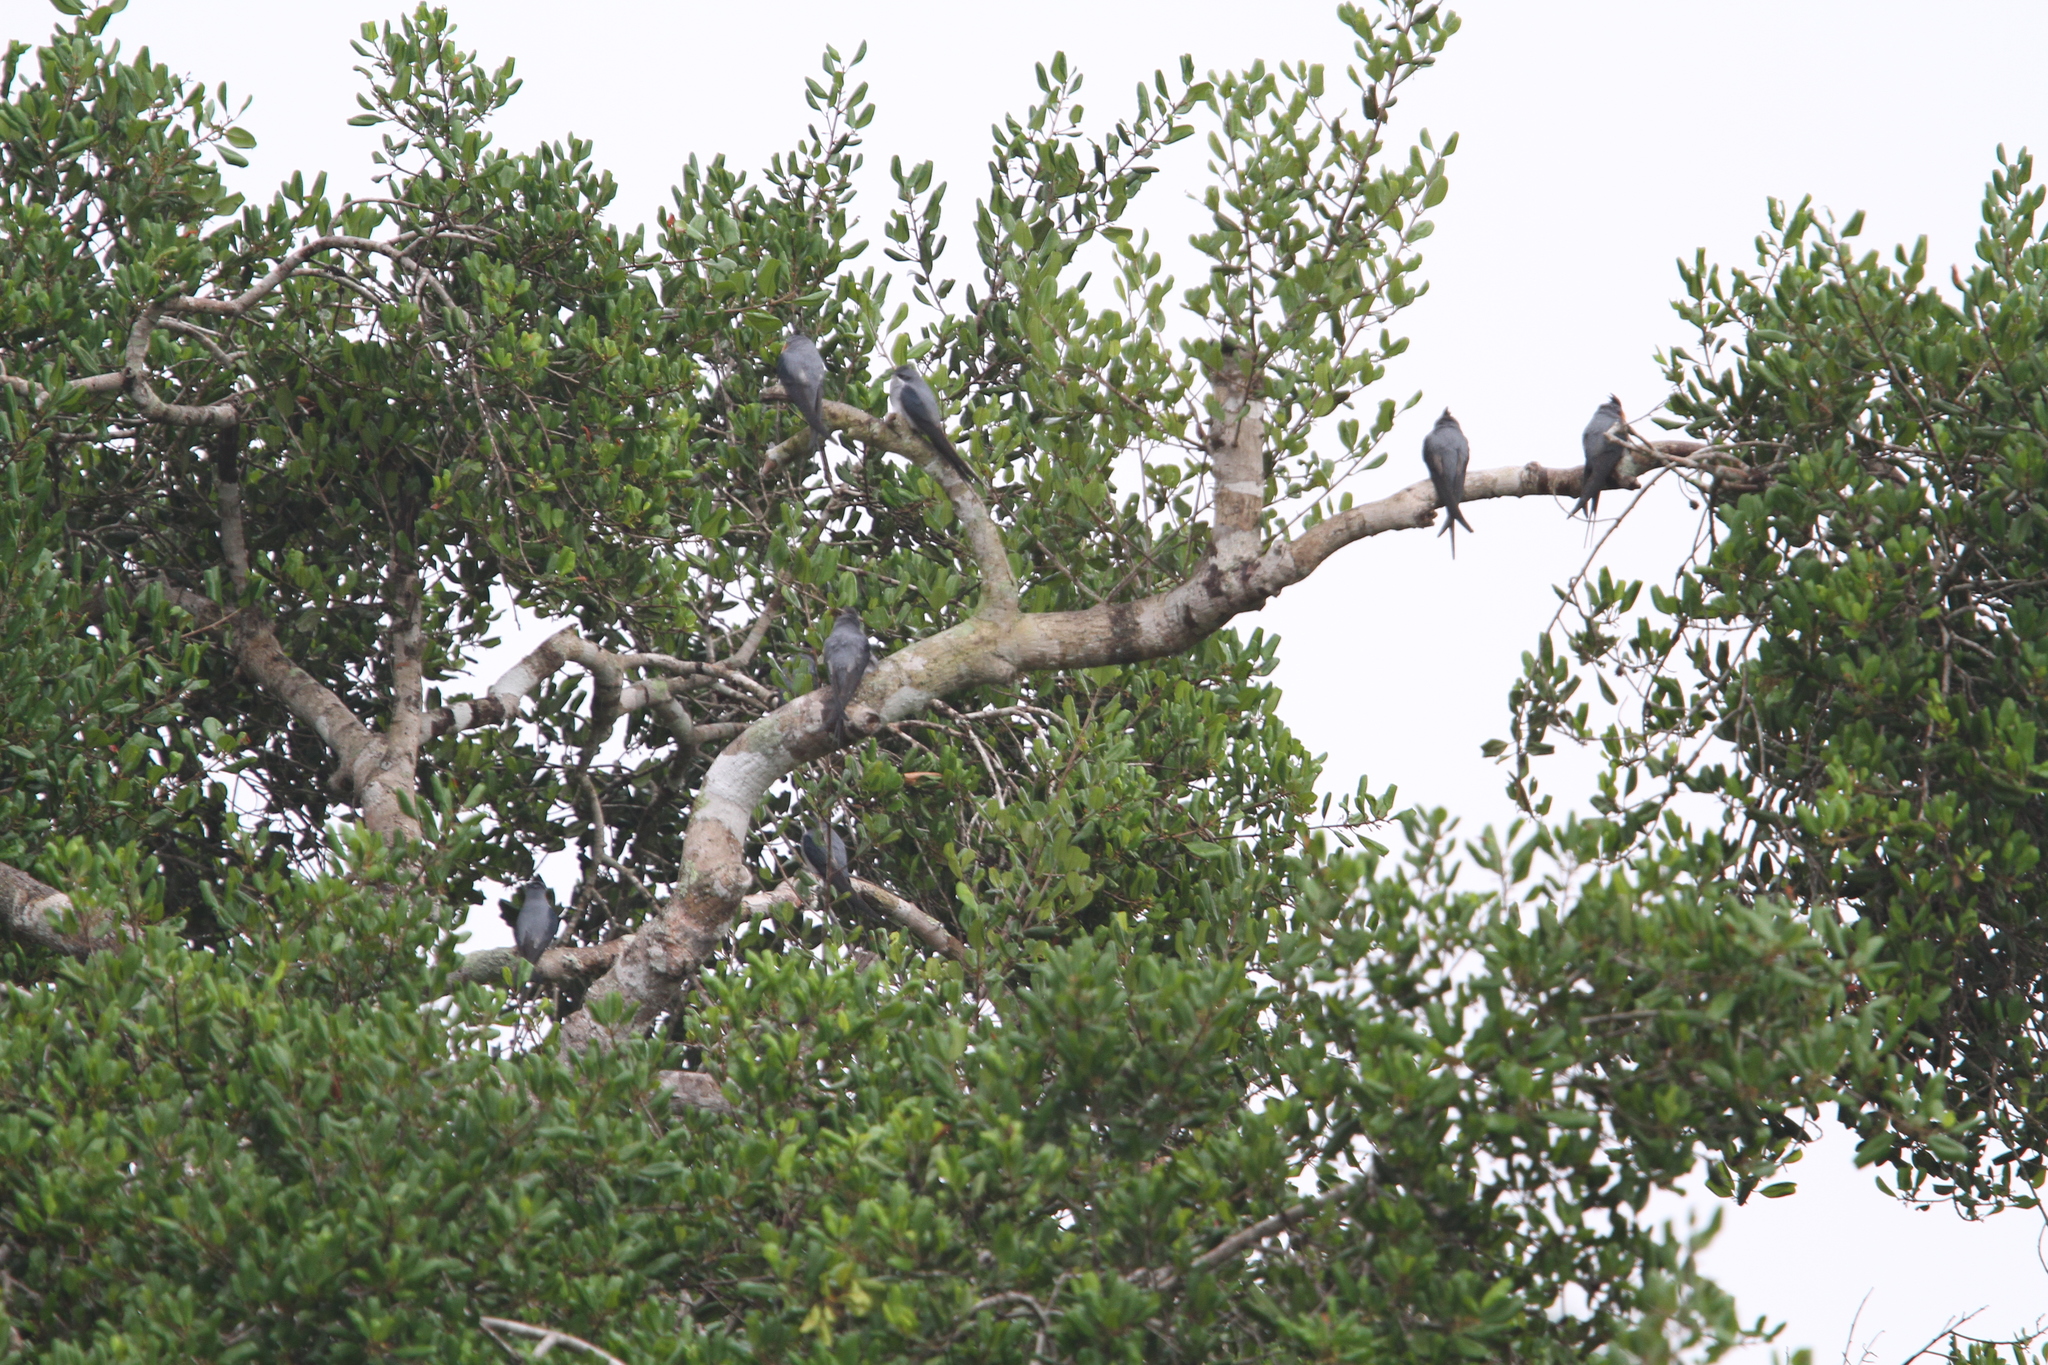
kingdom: Animalia
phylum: Chordata
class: Aves
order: Apodiformes
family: Hemiprocnidae
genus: Hemiprocne
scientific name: Hemiprocne coronata
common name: Crested treeswift
